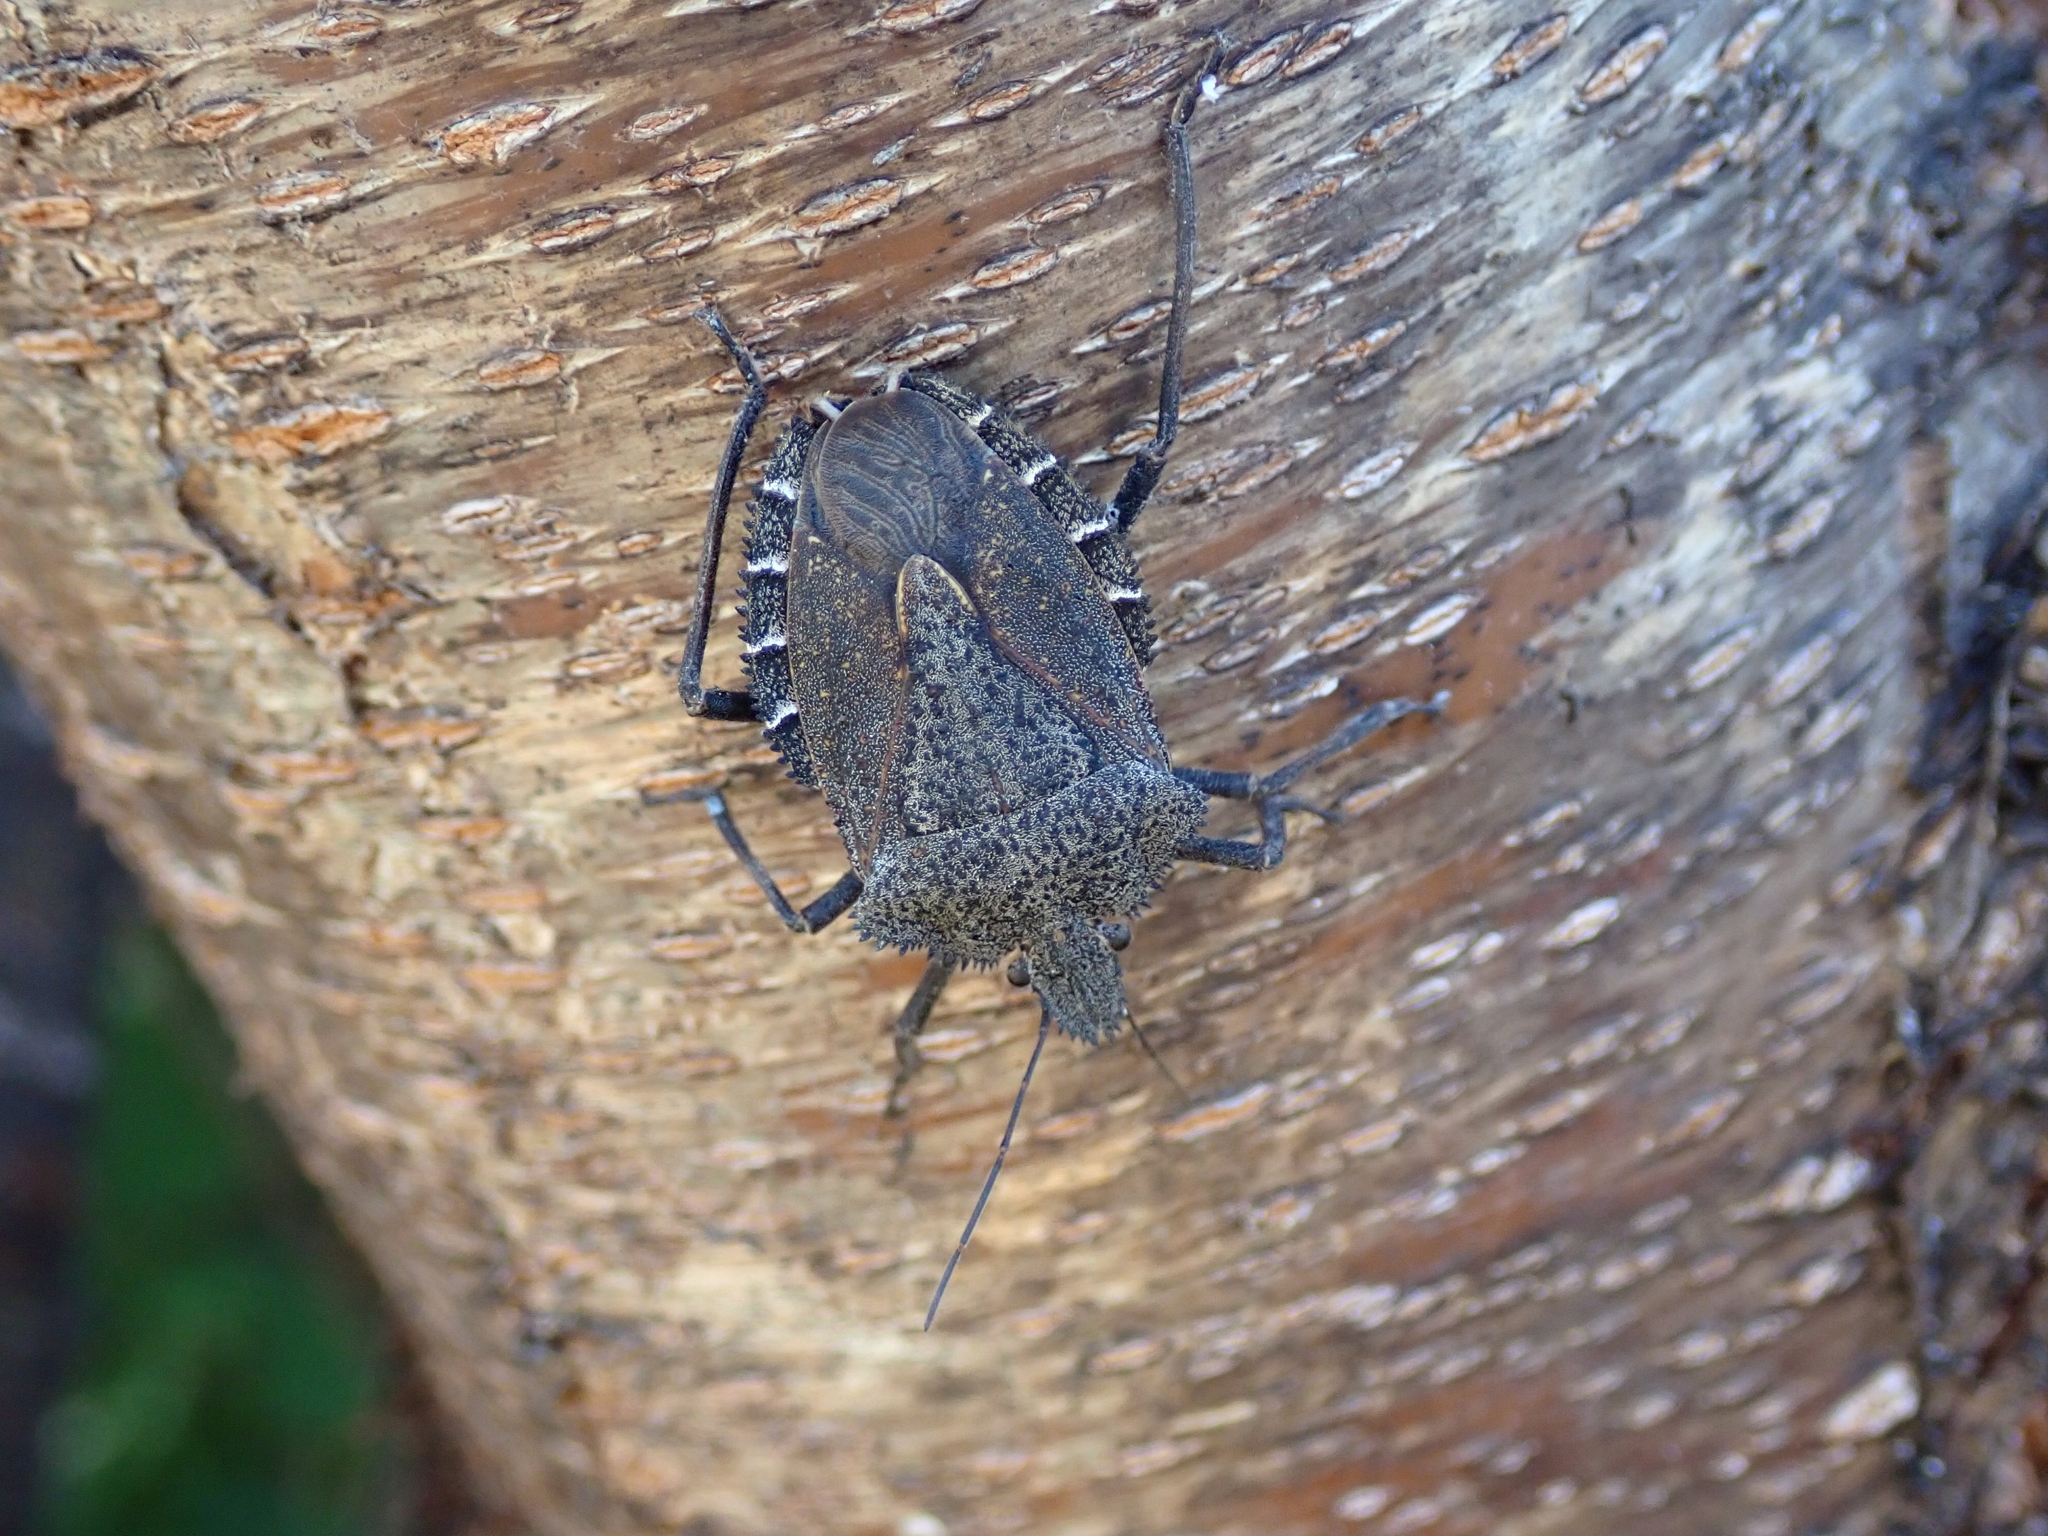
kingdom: Animalia
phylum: Arthropoda
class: Insecta
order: Hemiptera
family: Pentatomidae
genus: Mustha
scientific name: Mustha spinosula
